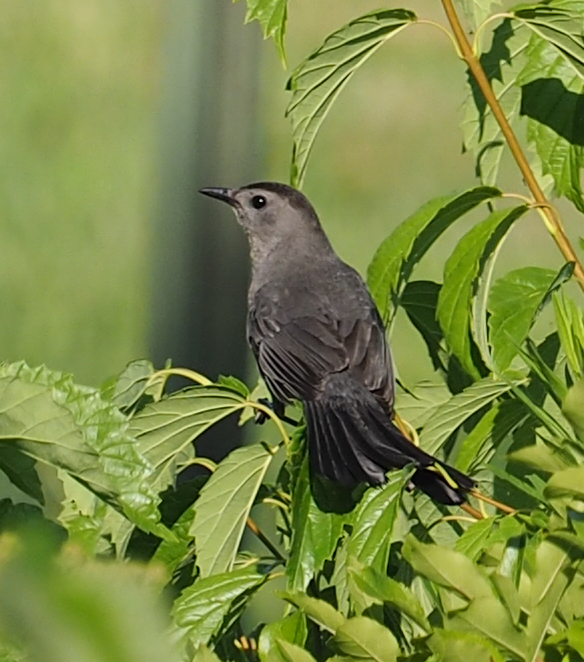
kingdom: Animalia
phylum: Chordata
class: Aves
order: Passeriformes
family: Mimidae
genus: Dumetella
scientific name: Dumetella carolinensis
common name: Gray catbird
